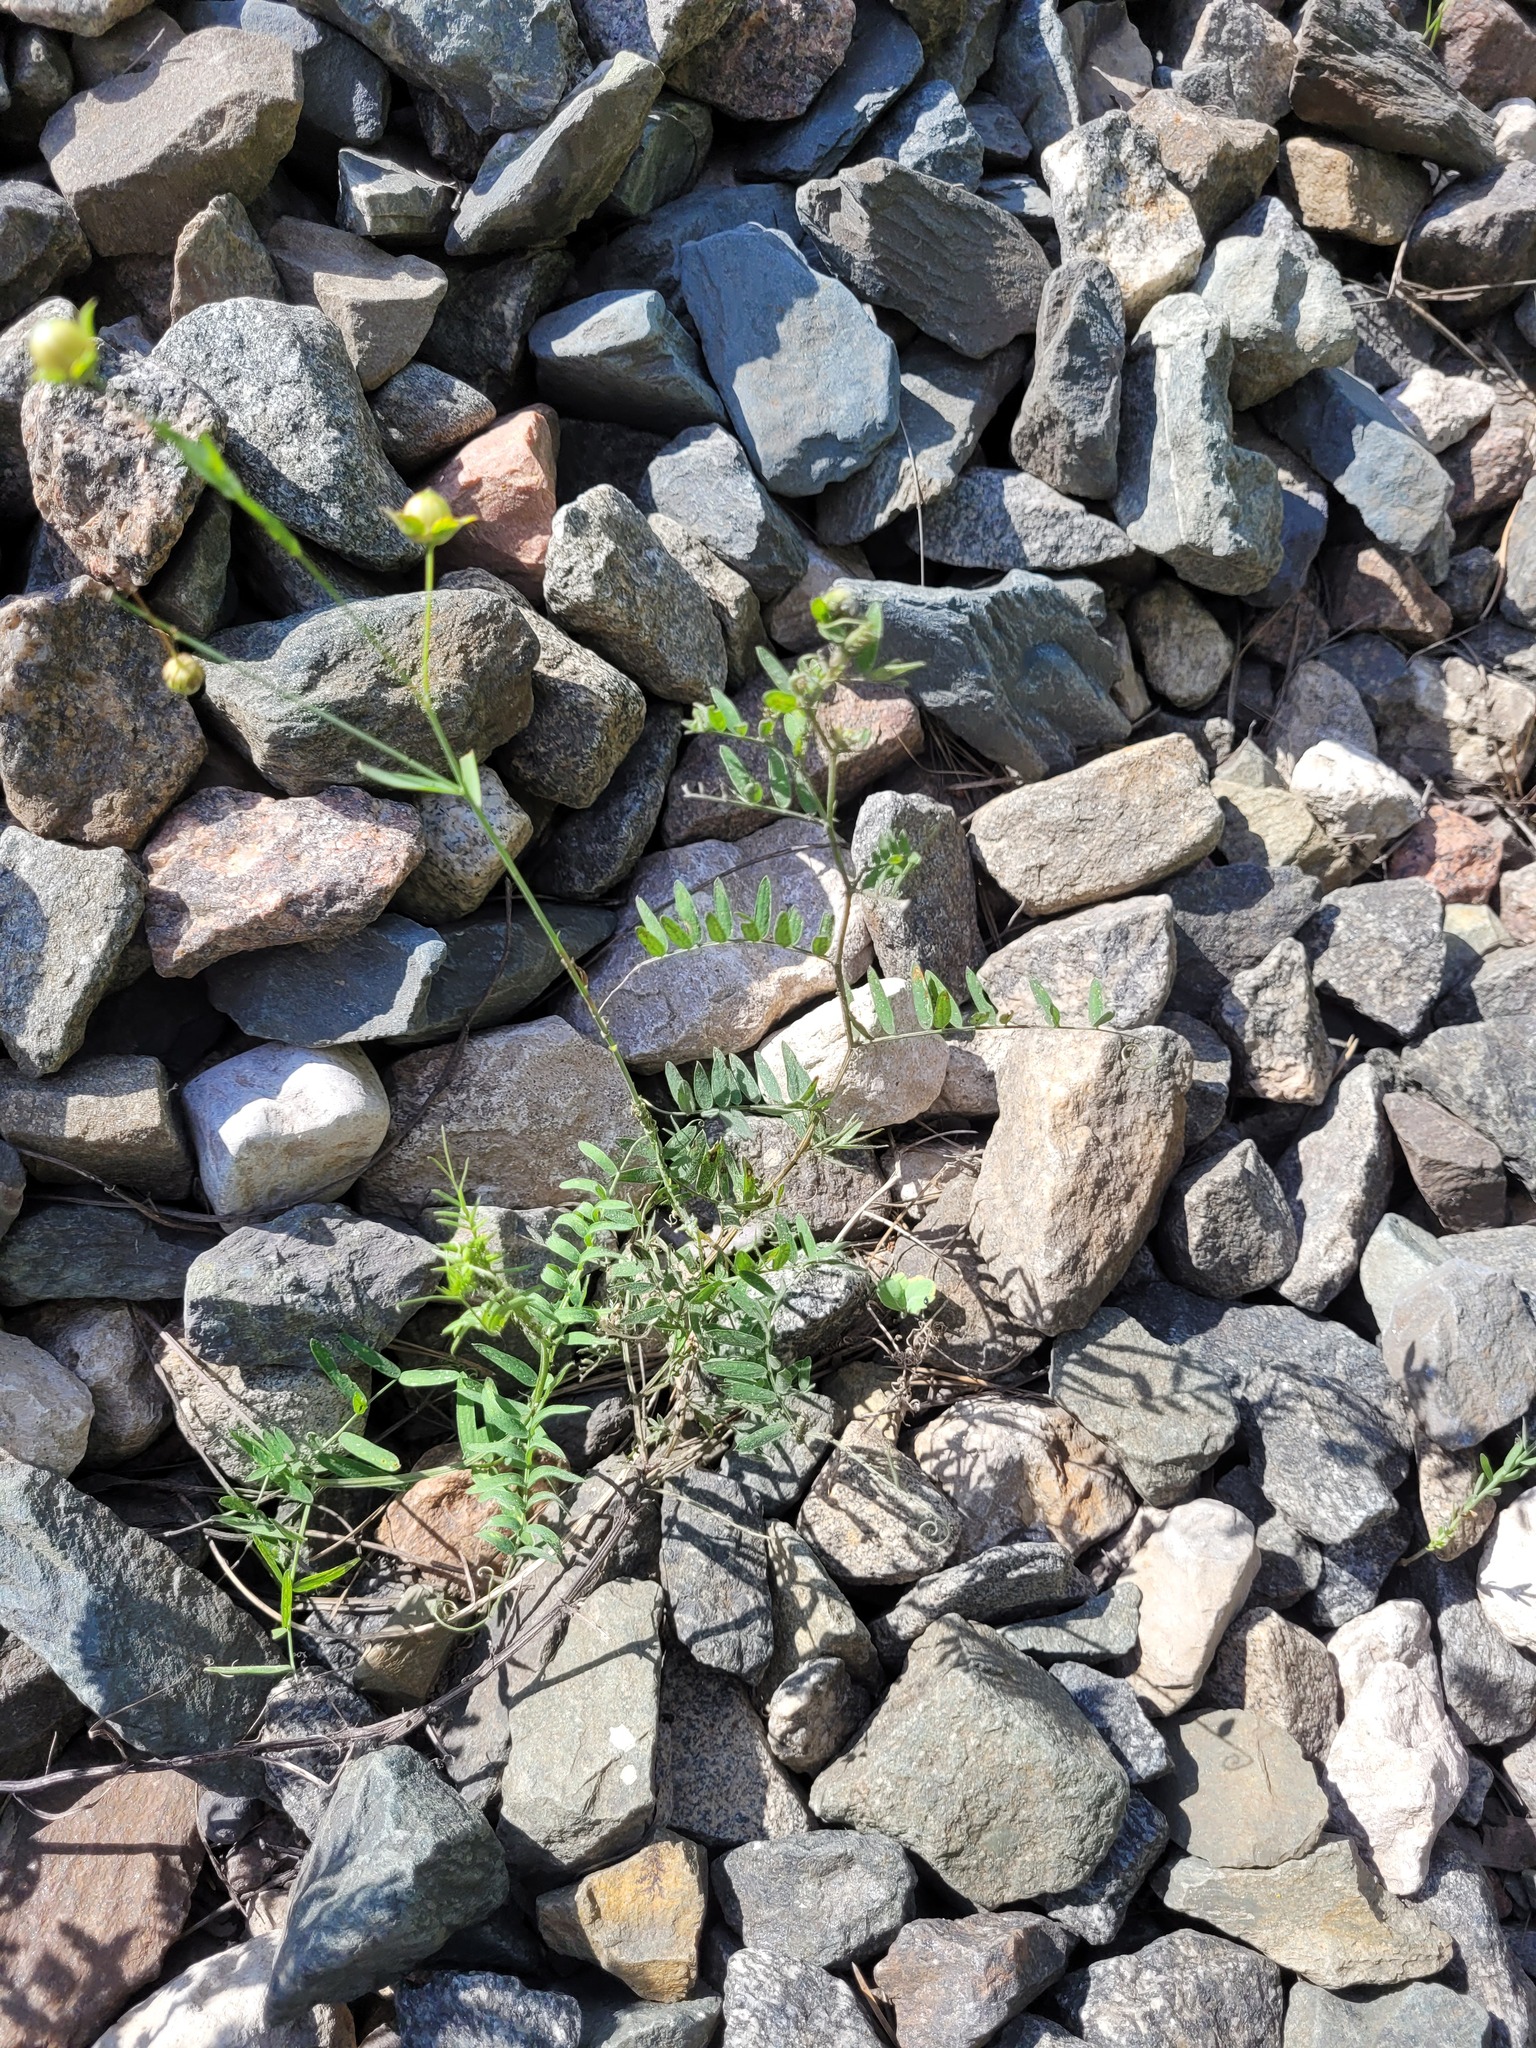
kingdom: Plantae
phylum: Tracheophyta
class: Magnoliopsida
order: Fabales
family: Fabaceae
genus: Vicia
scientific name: Vicia cracca
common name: Bird vetch
